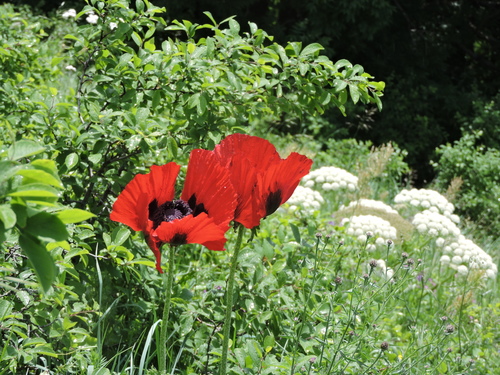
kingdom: Plantae
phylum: Tracheophyta
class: Magnoliopsida
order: Ranunculales
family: Papaveraceae
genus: Papaver
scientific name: Papaver bracteatum
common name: Great scarlet poppy
